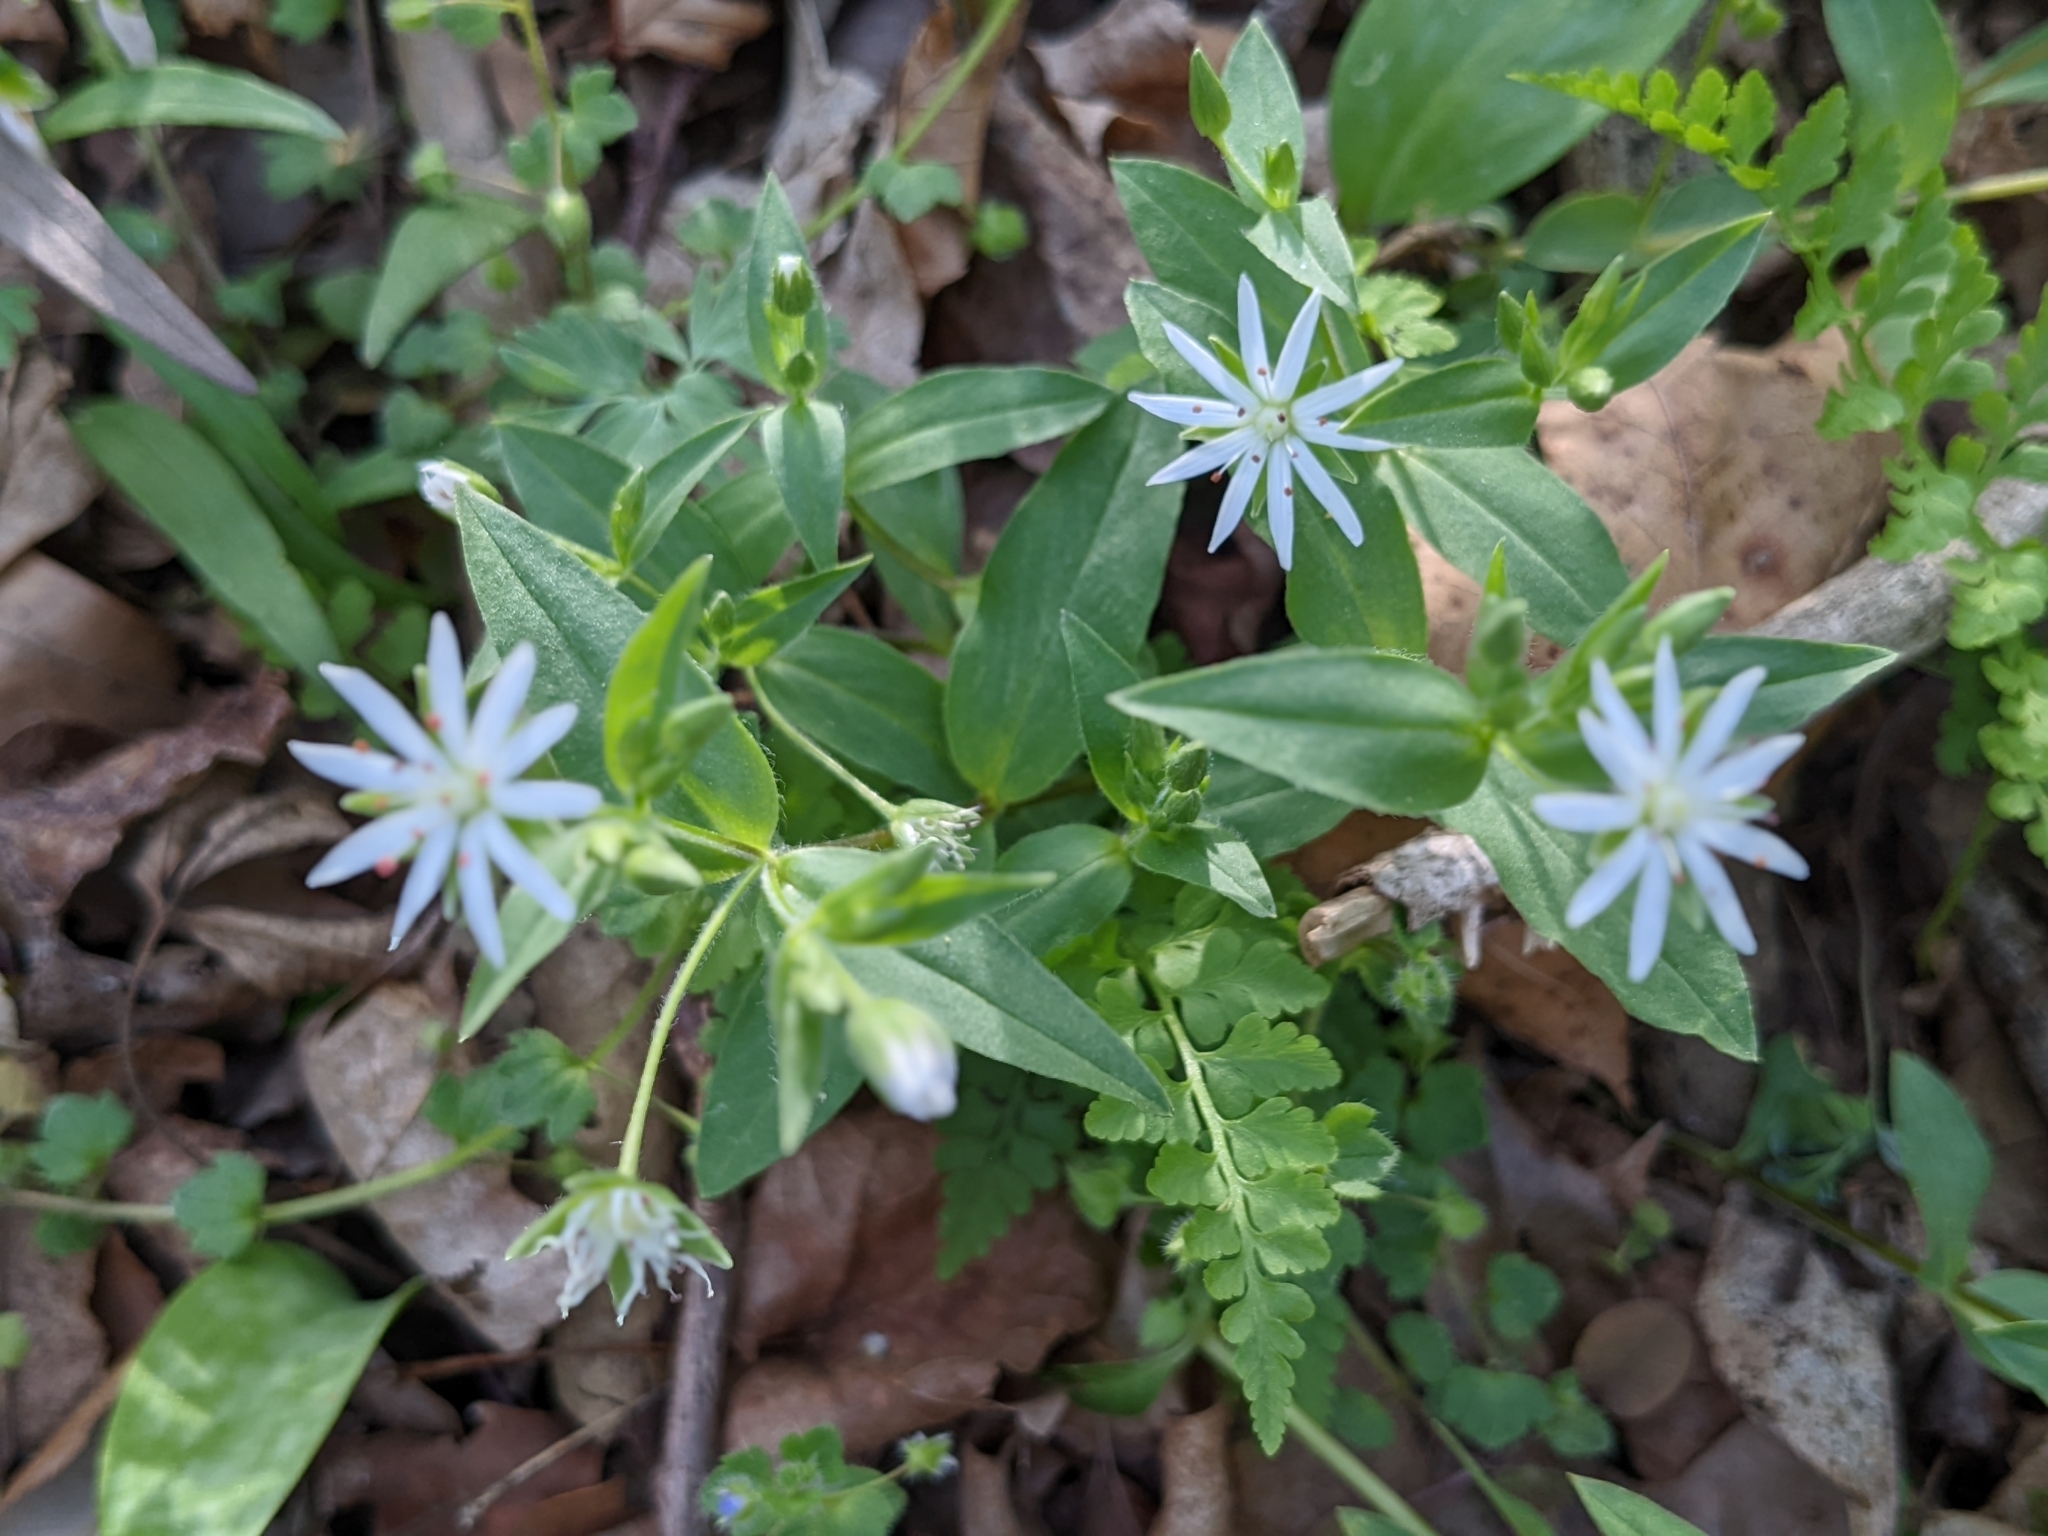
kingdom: Plantae
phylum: Tracheophyta
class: Magnoliopsida
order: Caryophyllales
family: Caryophyllaceae
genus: Stellaria
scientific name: Stellaria pubera
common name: Star chickweed
